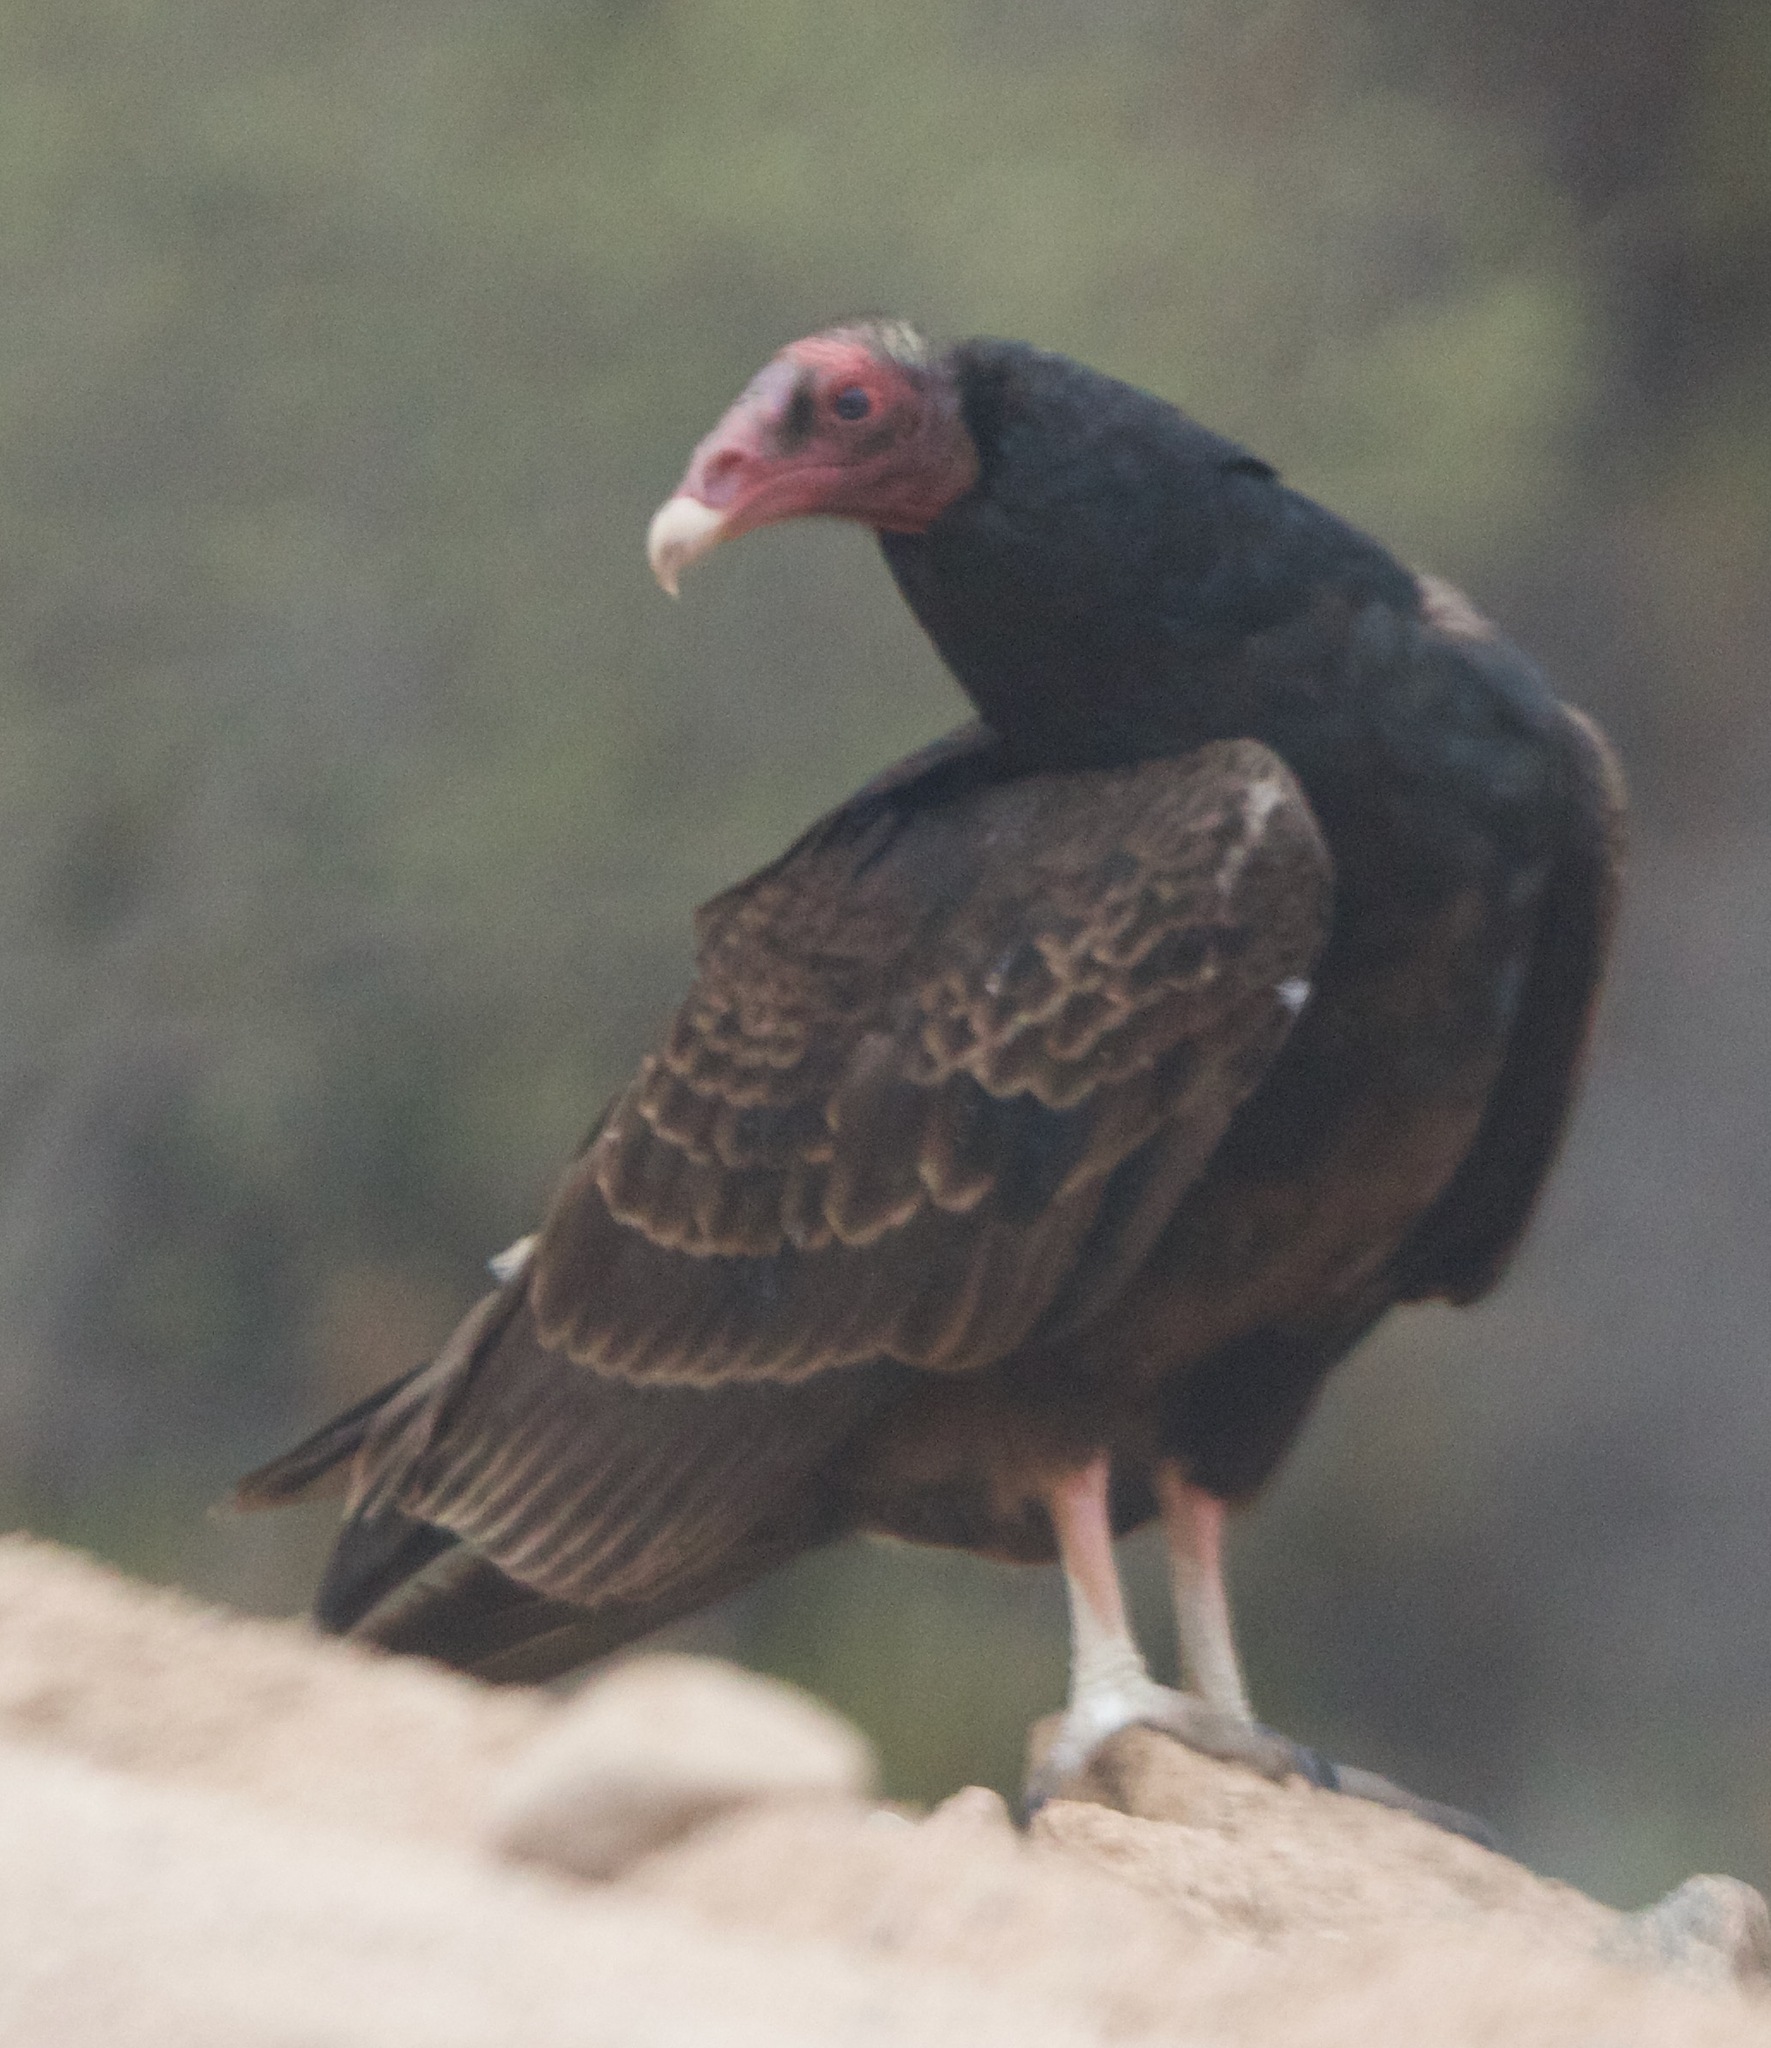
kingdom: Animalia
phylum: Chordata
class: Aves
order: Accipitriformes
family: Cathartidae
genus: Cathartes
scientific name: Cathartes aura
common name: Turkey vulture
